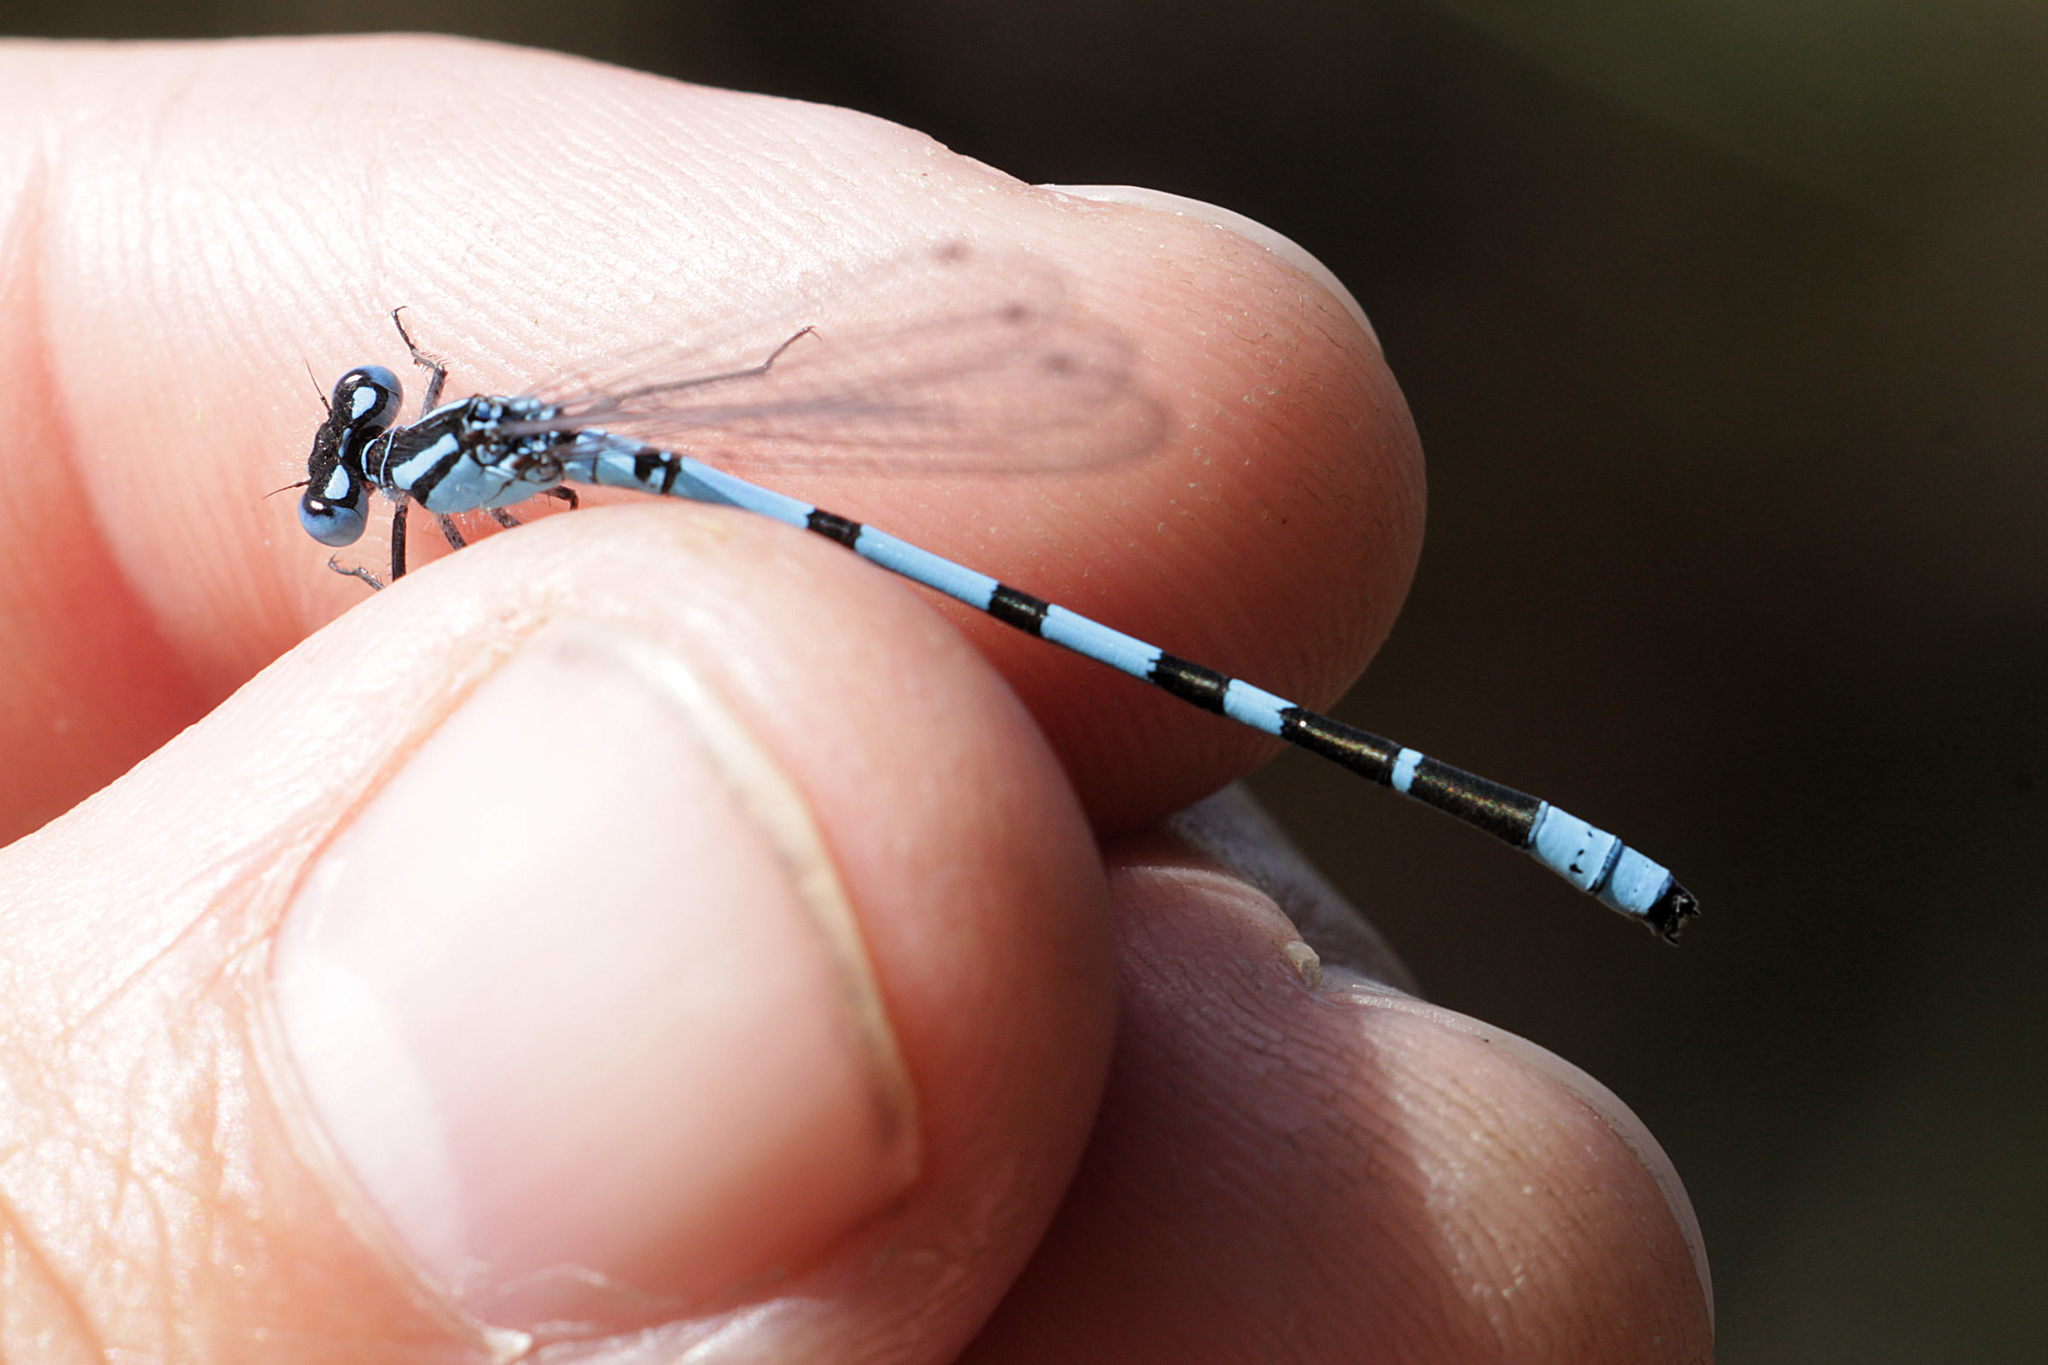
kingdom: Animalia
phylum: Arthropoda
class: Insecta
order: Odonata
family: Coenagrionidae
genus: Enallagma
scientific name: Enallagma cyathigerum
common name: Common blue damselfly
